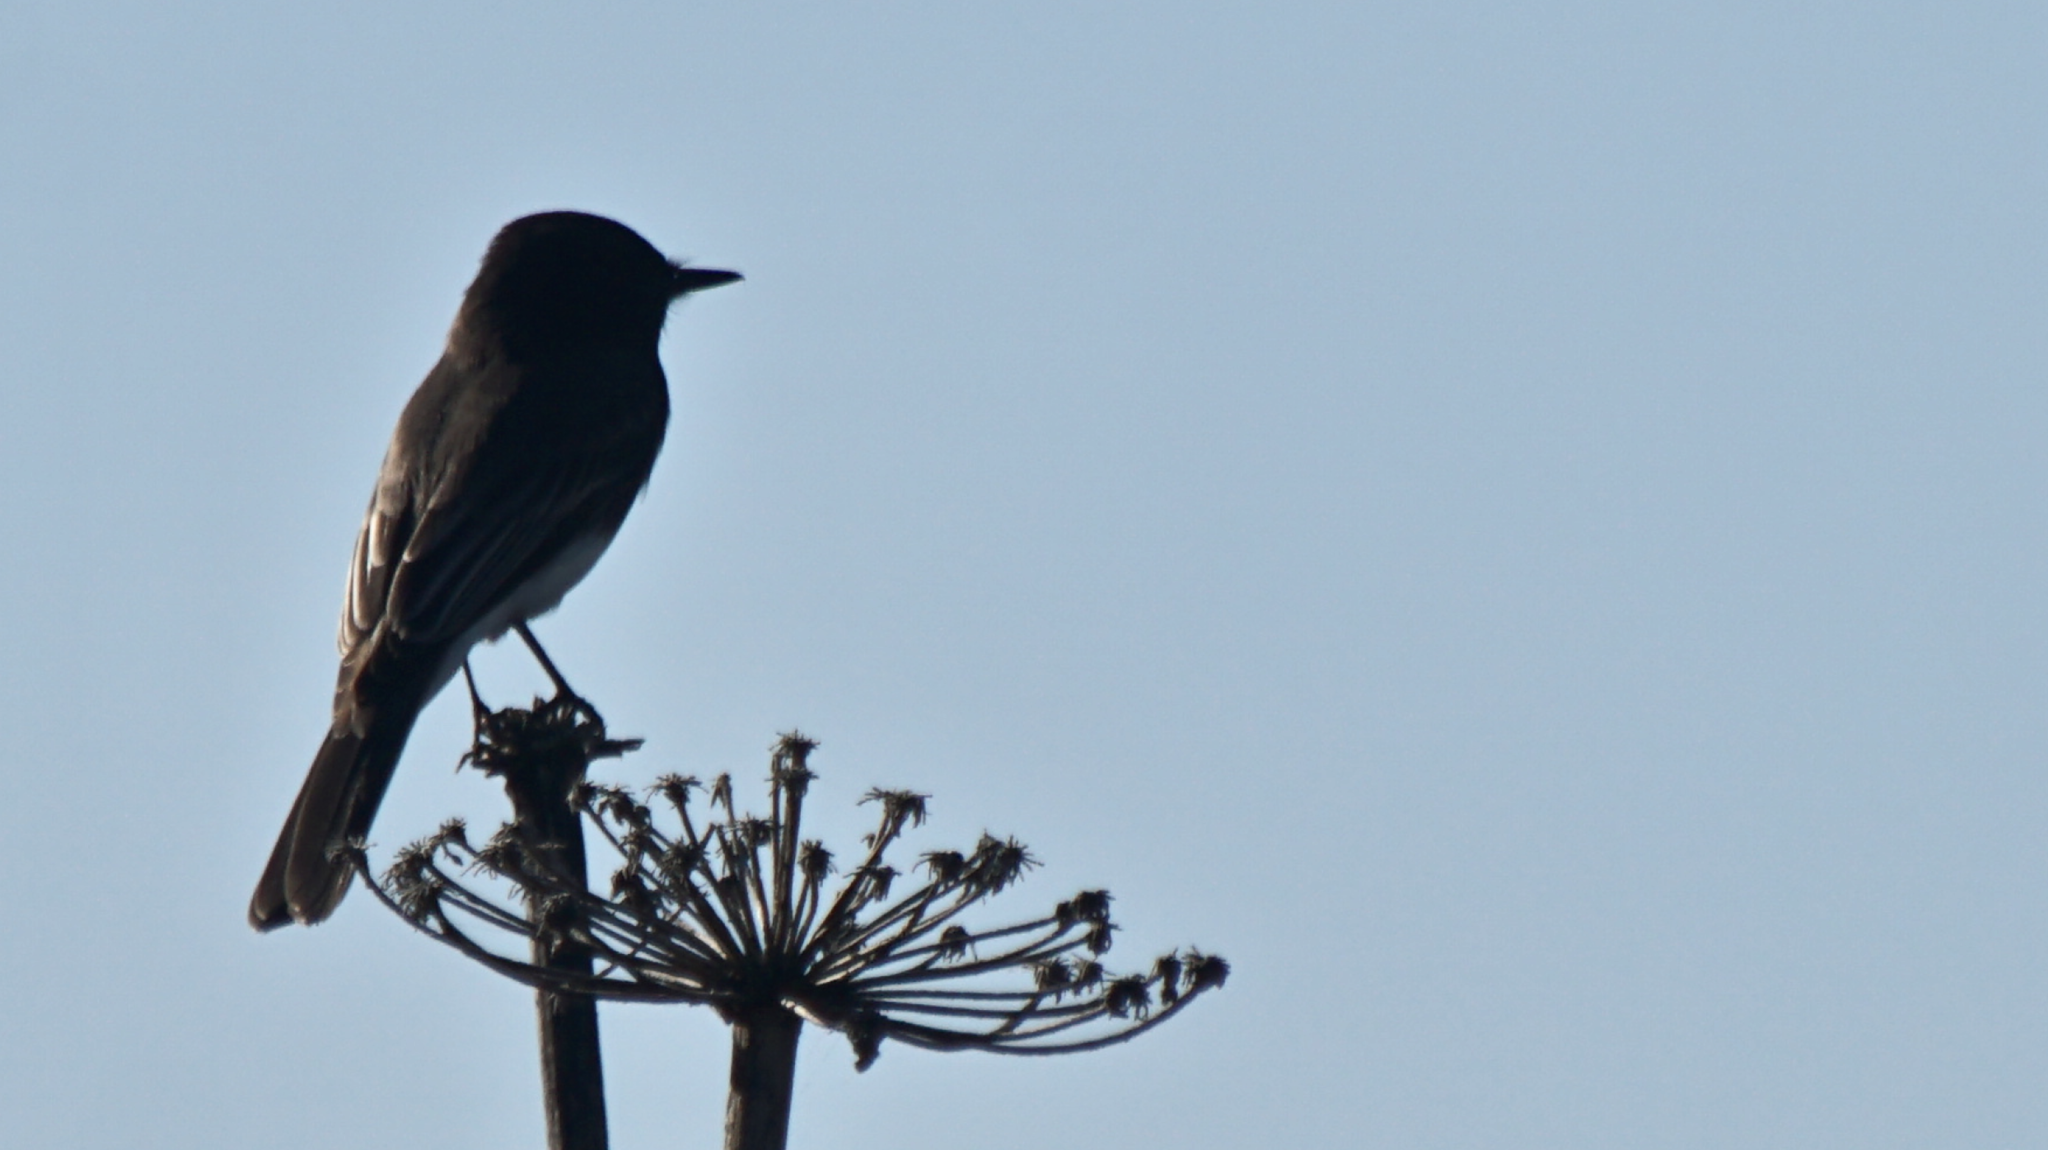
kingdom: Animalia
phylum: Chordata
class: Aves
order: Passeriformes
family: Tyrannidae
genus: Sayornis
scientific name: Sayornis nigricans
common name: Black phoebe
